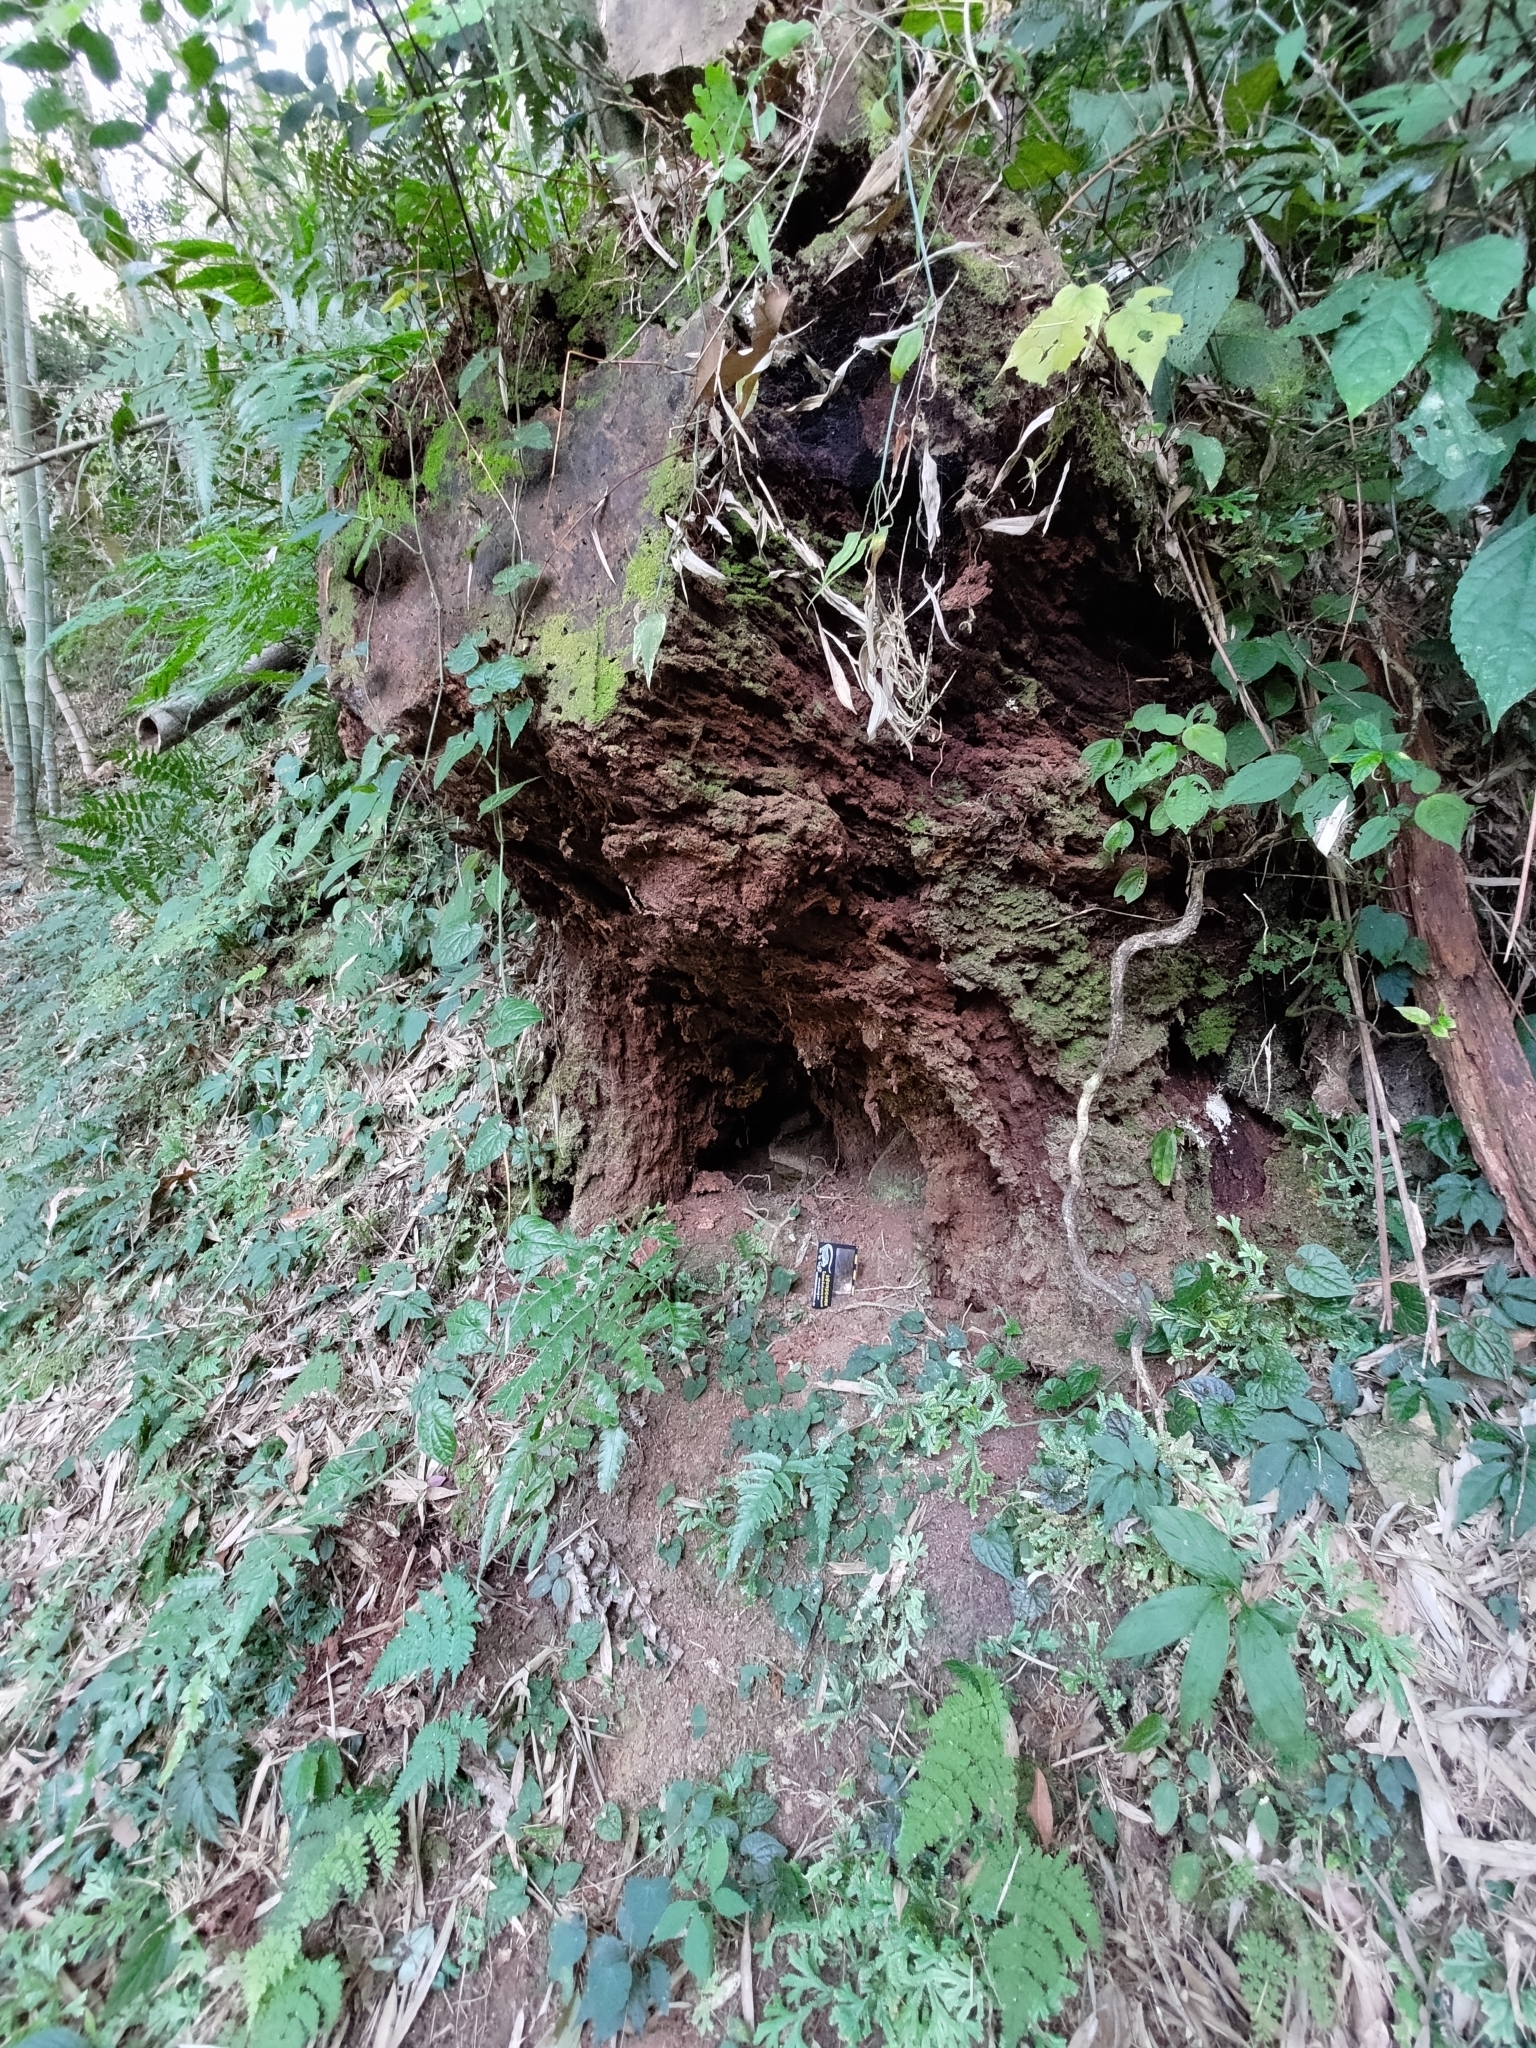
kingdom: Animalia
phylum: Chordata
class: Mammalia
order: Pholidota
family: Manidae
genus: Manis
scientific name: Manis pentadactyla
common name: Chinese pangolin
